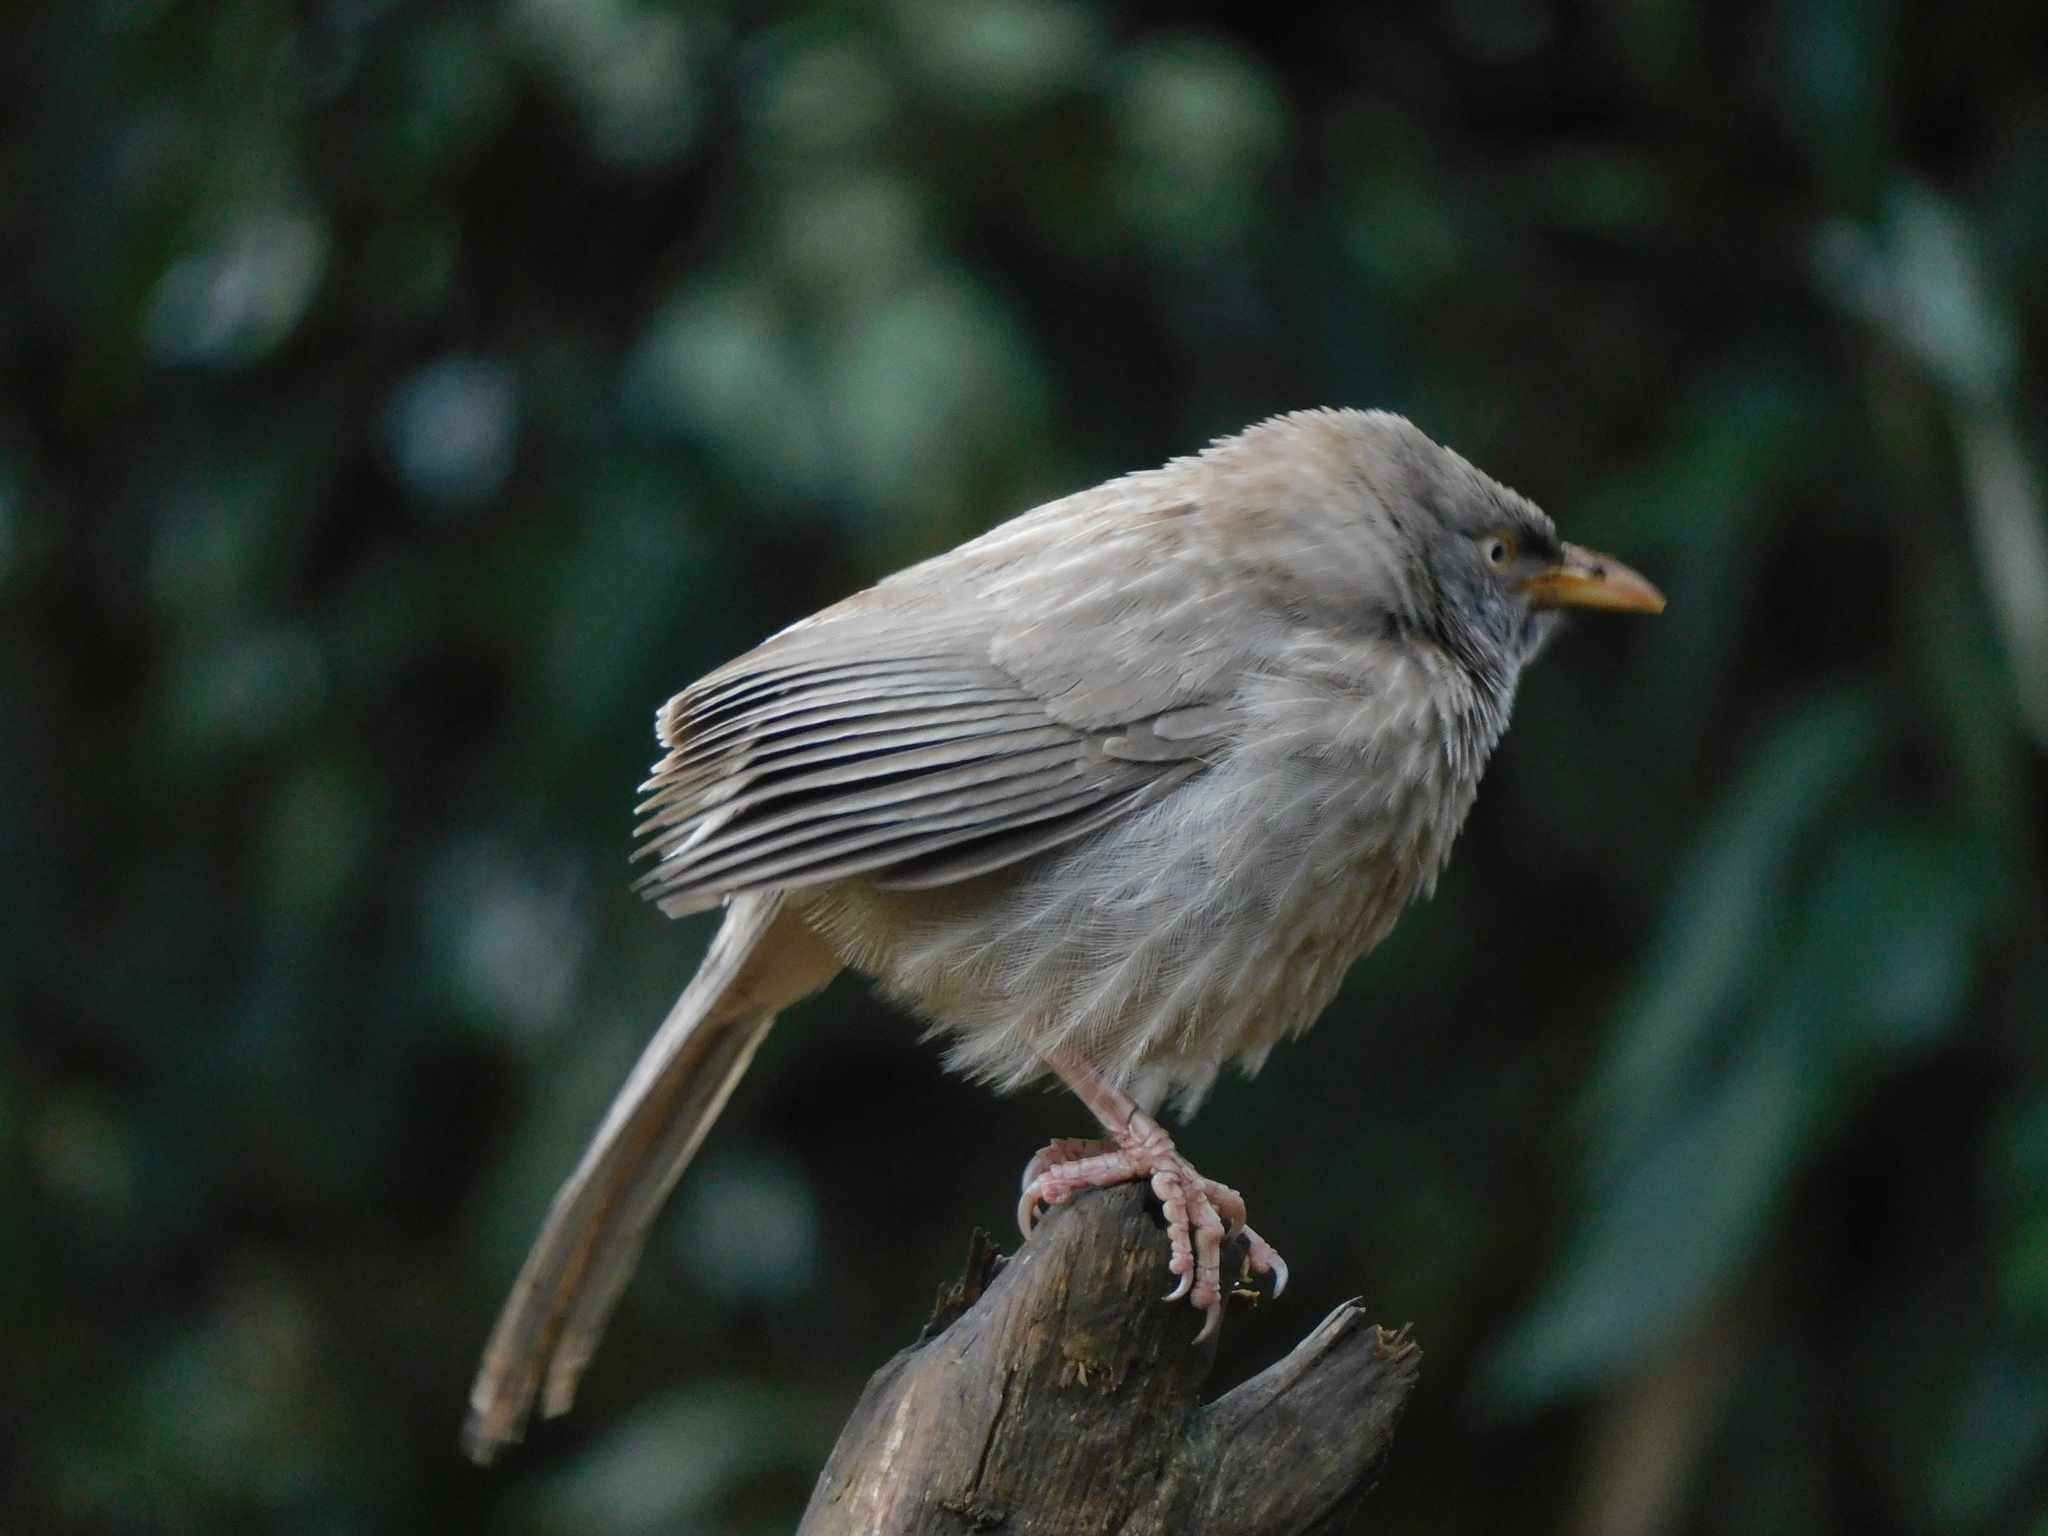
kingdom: Animalia
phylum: Chordata
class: Aves
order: Passeriformes
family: Leiothrichidae
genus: Turdoides
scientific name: Turdoides striata
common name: Jungle babbler
